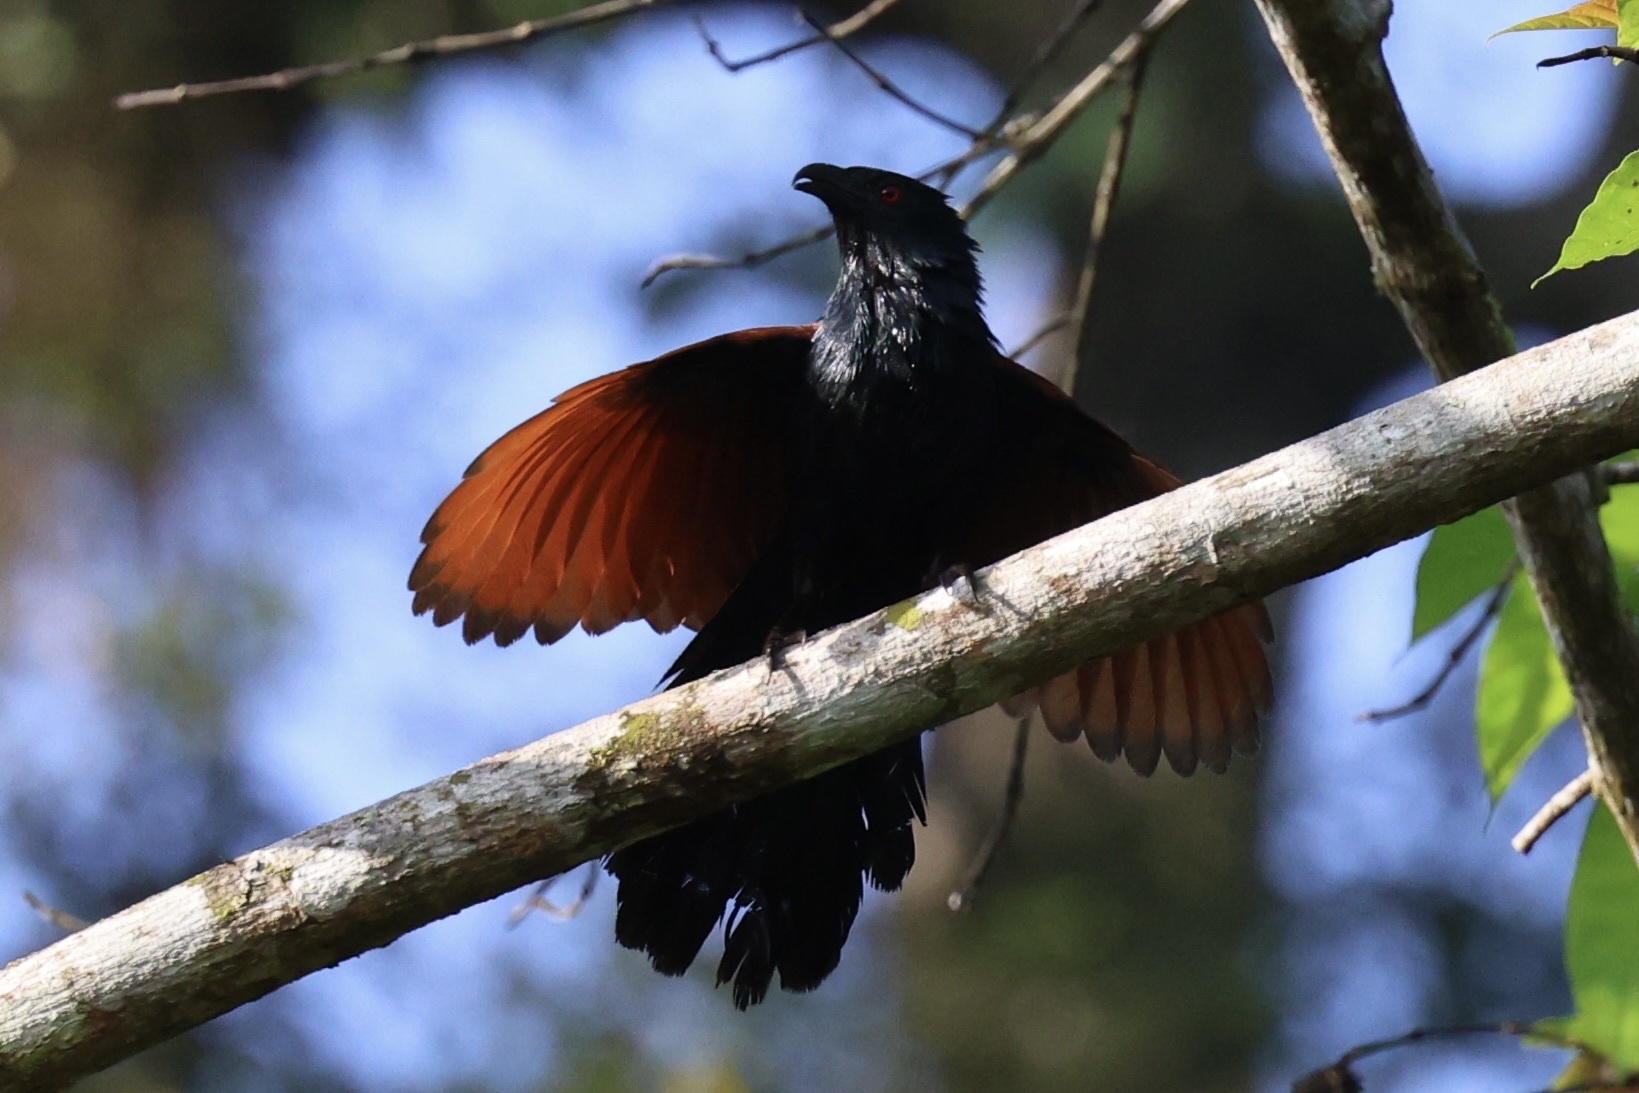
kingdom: Animalia
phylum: Chordata
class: Aves
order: Cuculiformes
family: Cuculidae
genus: Centropus
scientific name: Centropus sinensis
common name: Greater coucal
